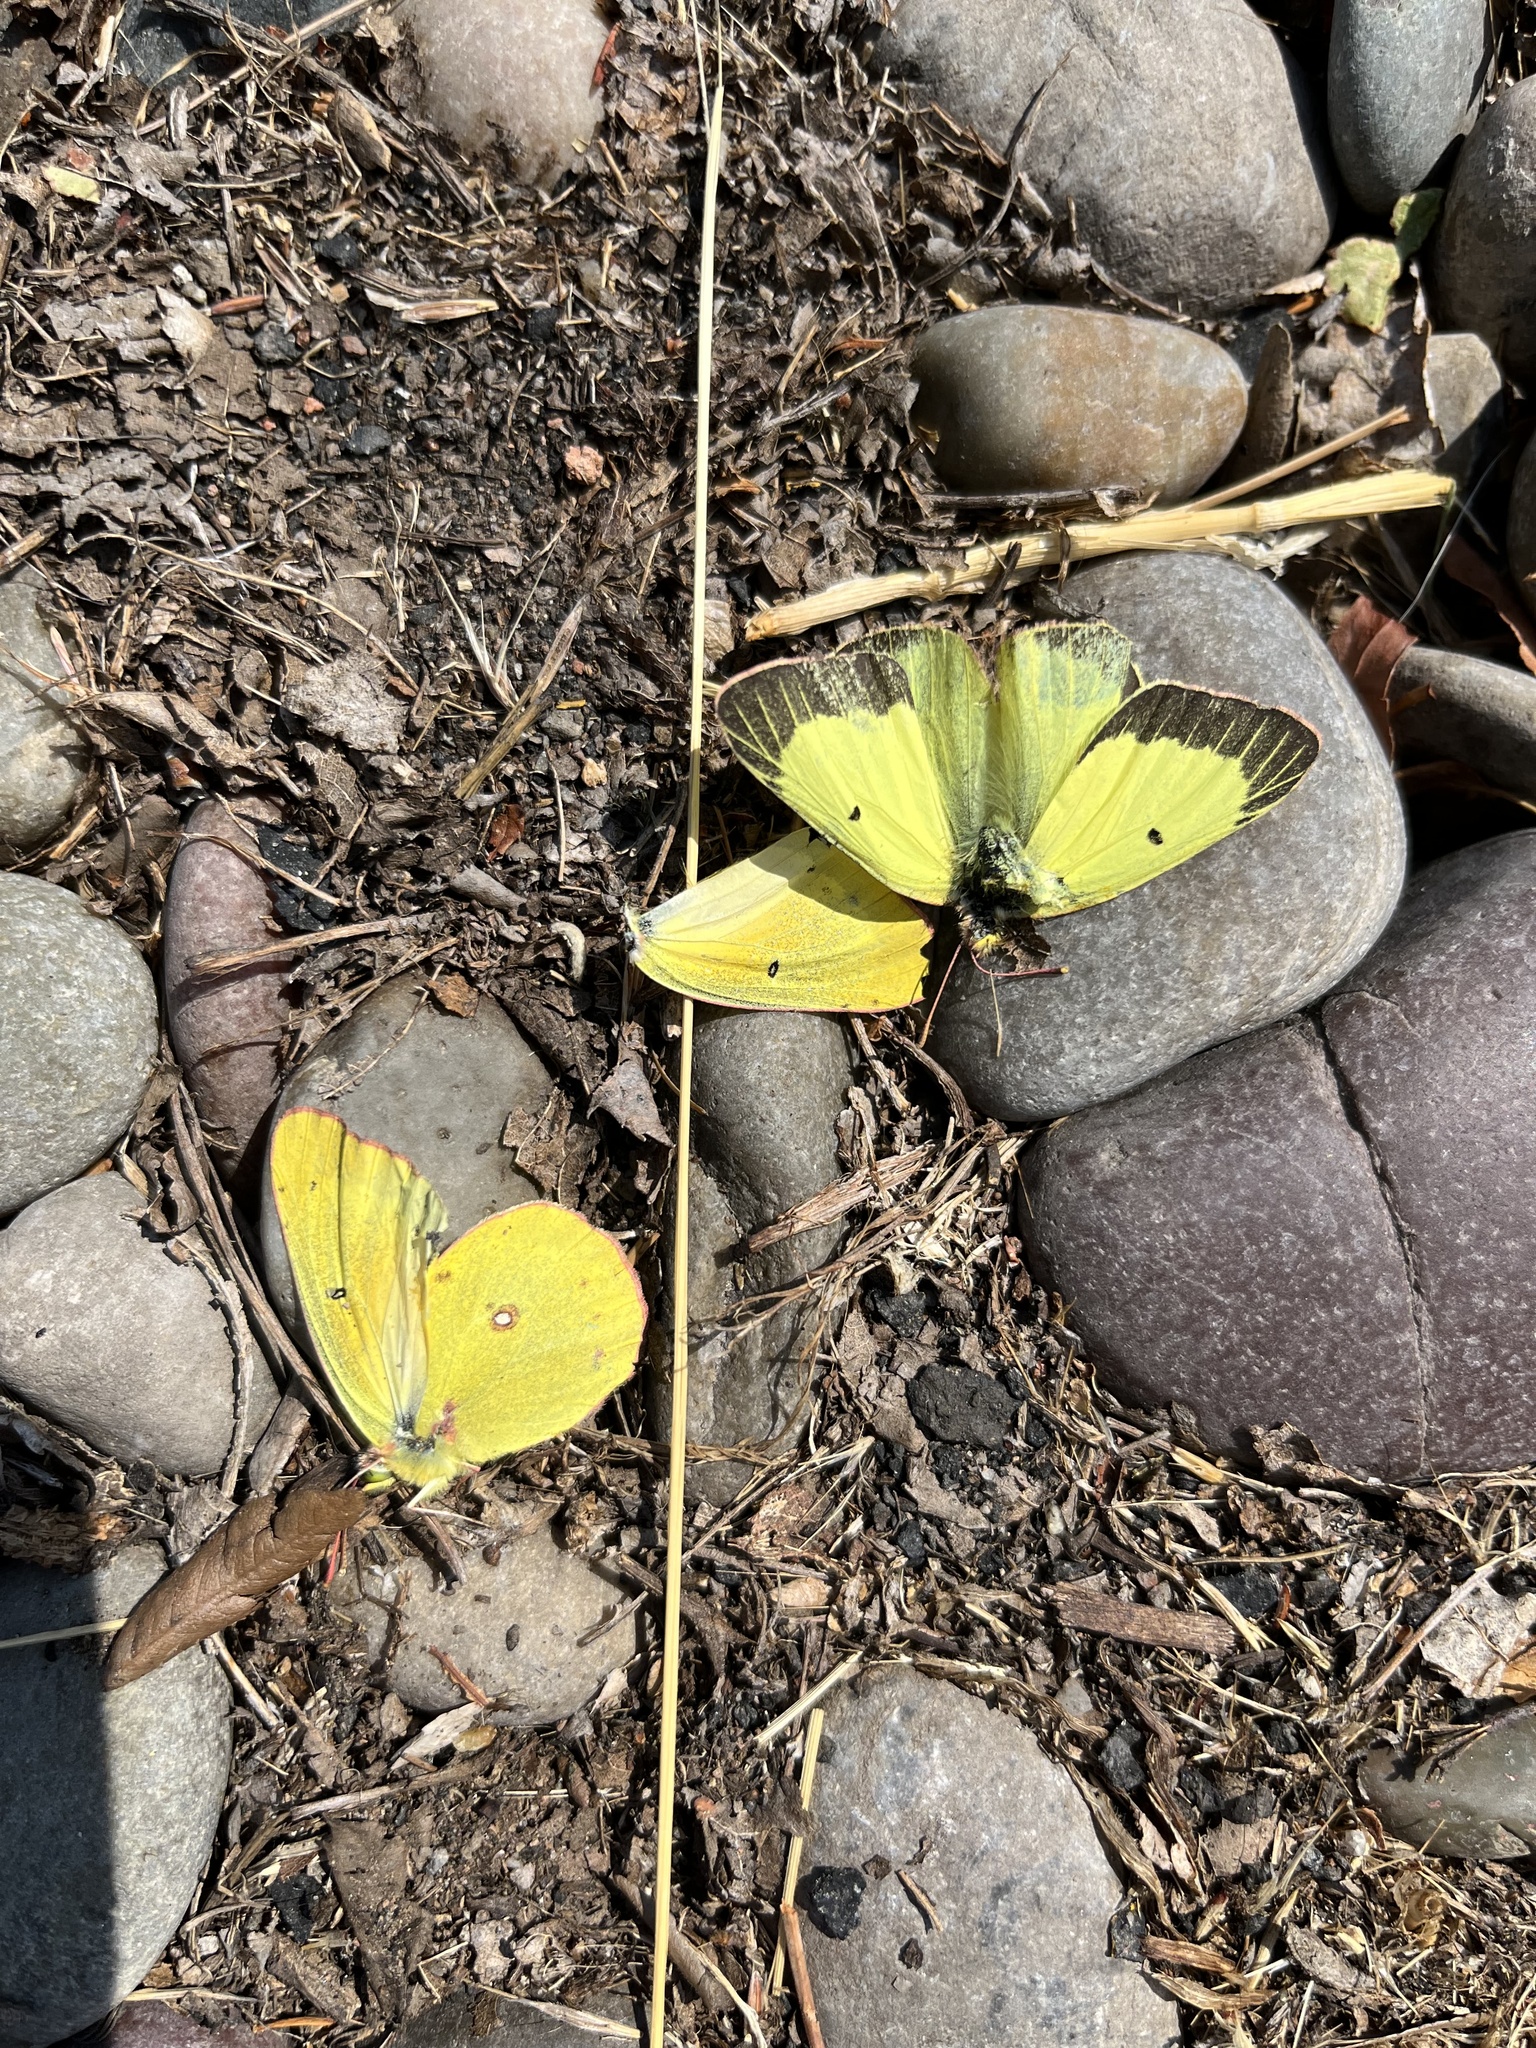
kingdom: Animalia
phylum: Arthropoda
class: Insecta
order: Lepidoptera
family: Pieridae
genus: Colias
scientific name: Colias philodice
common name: Clouded sulphur
